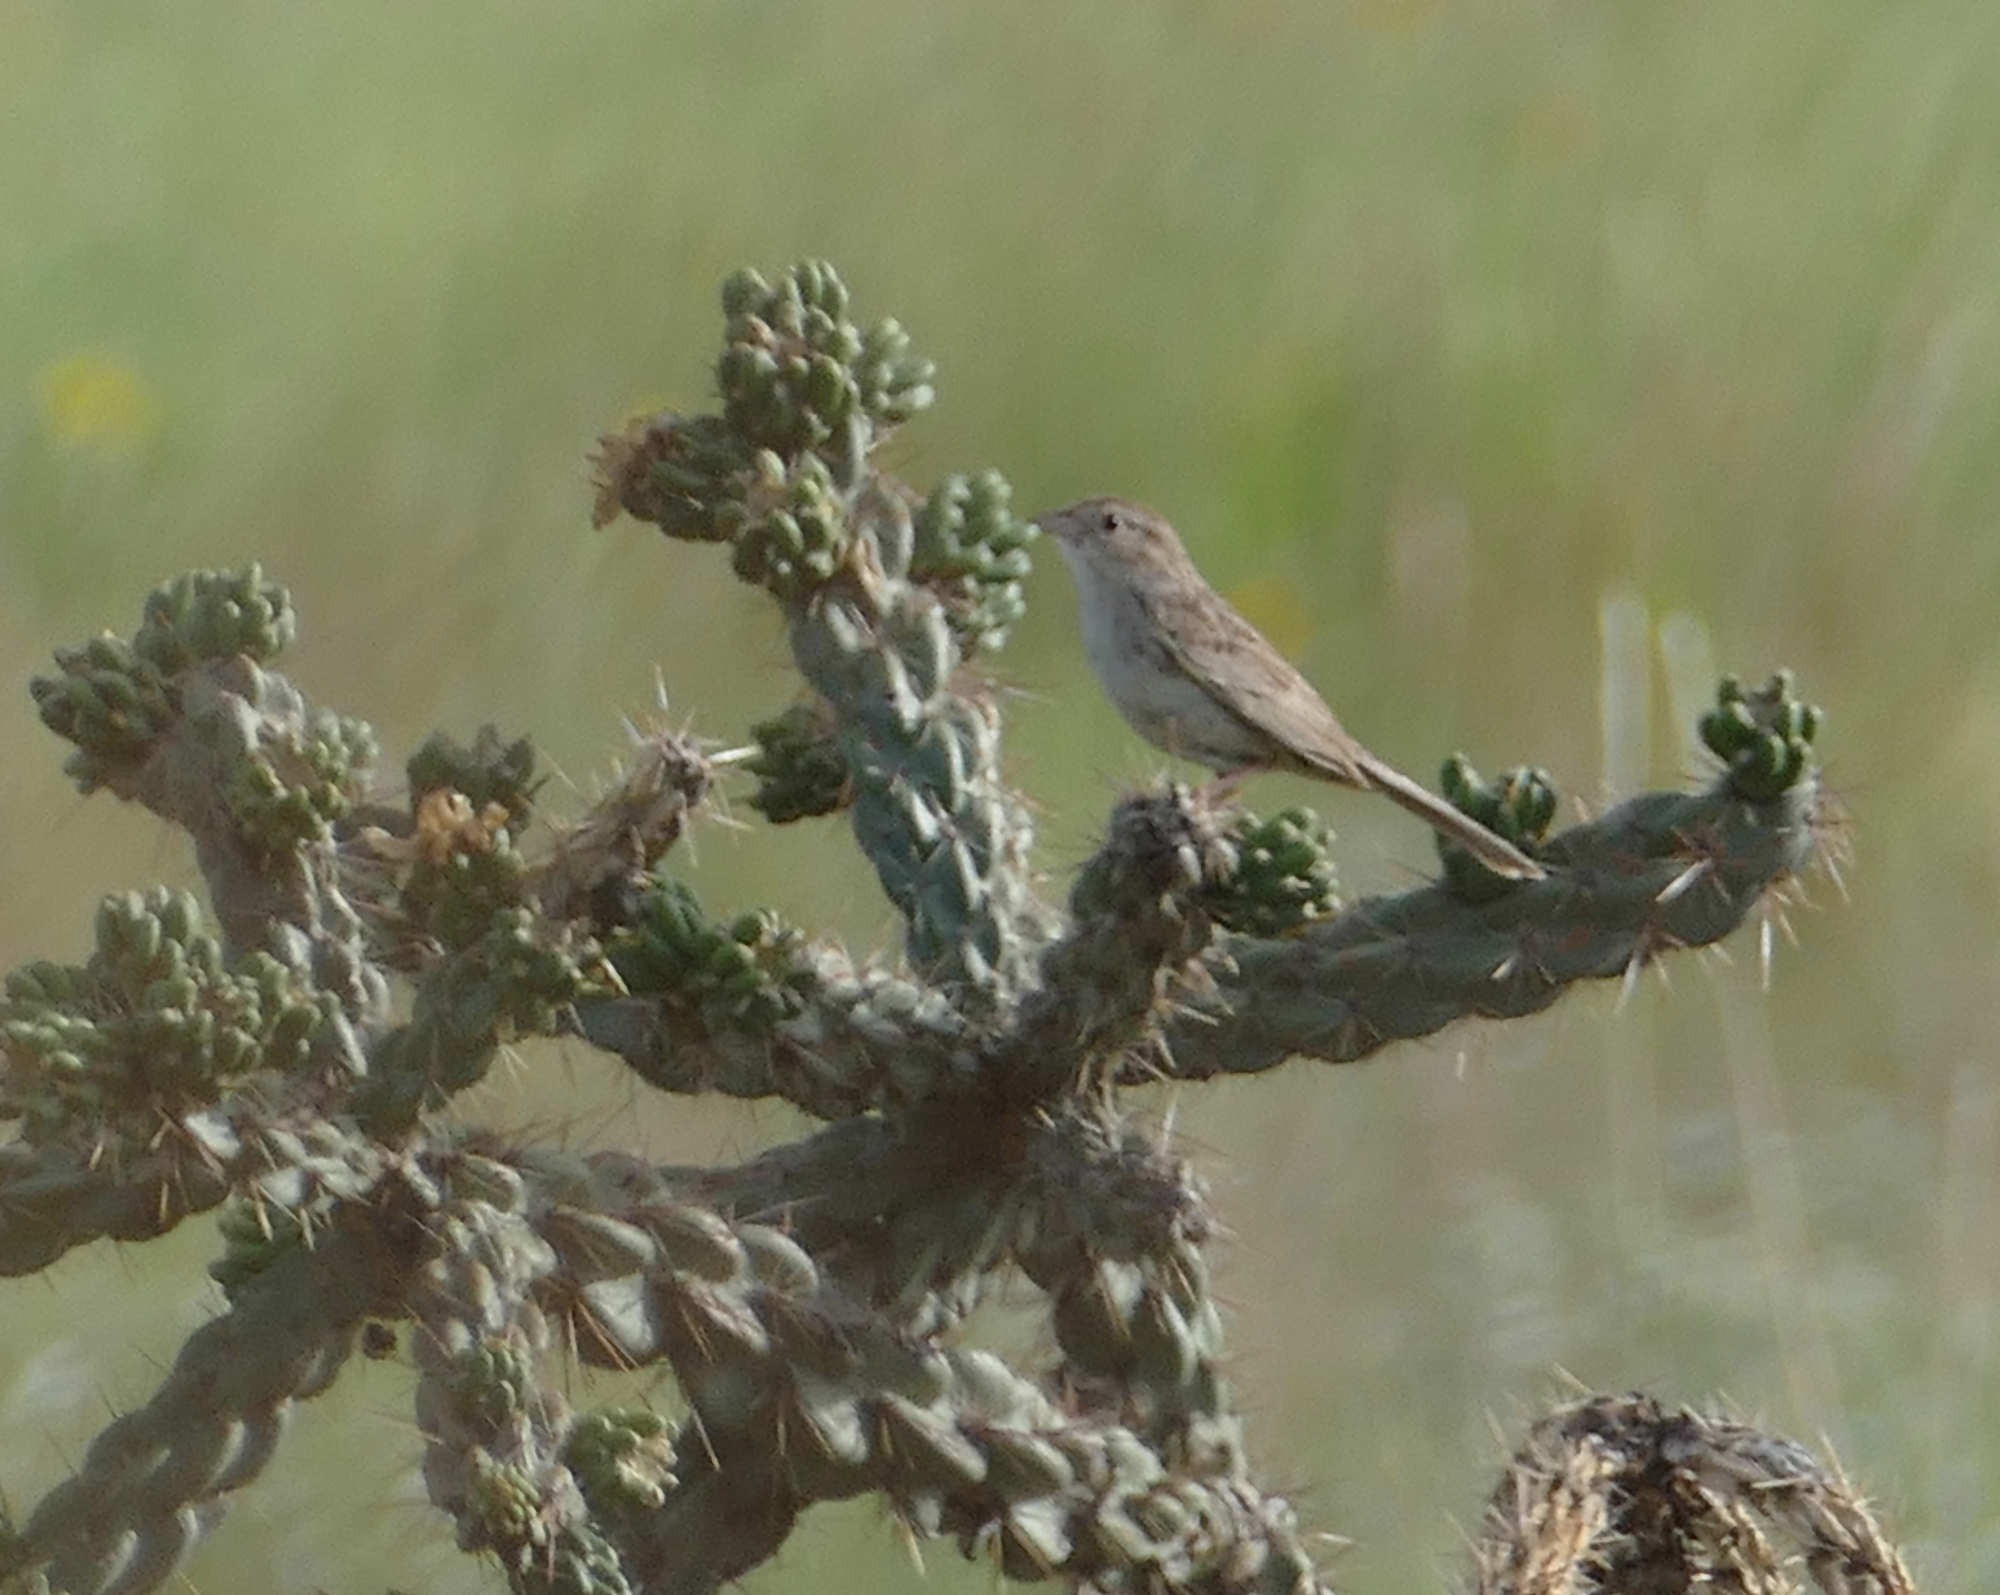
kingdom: Animalia
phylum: Chordata
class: Aves
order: Passeriformes
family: Passerellidae
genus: Peucaea
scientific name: Peucaea cassinii
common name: Cassin's sparrow
